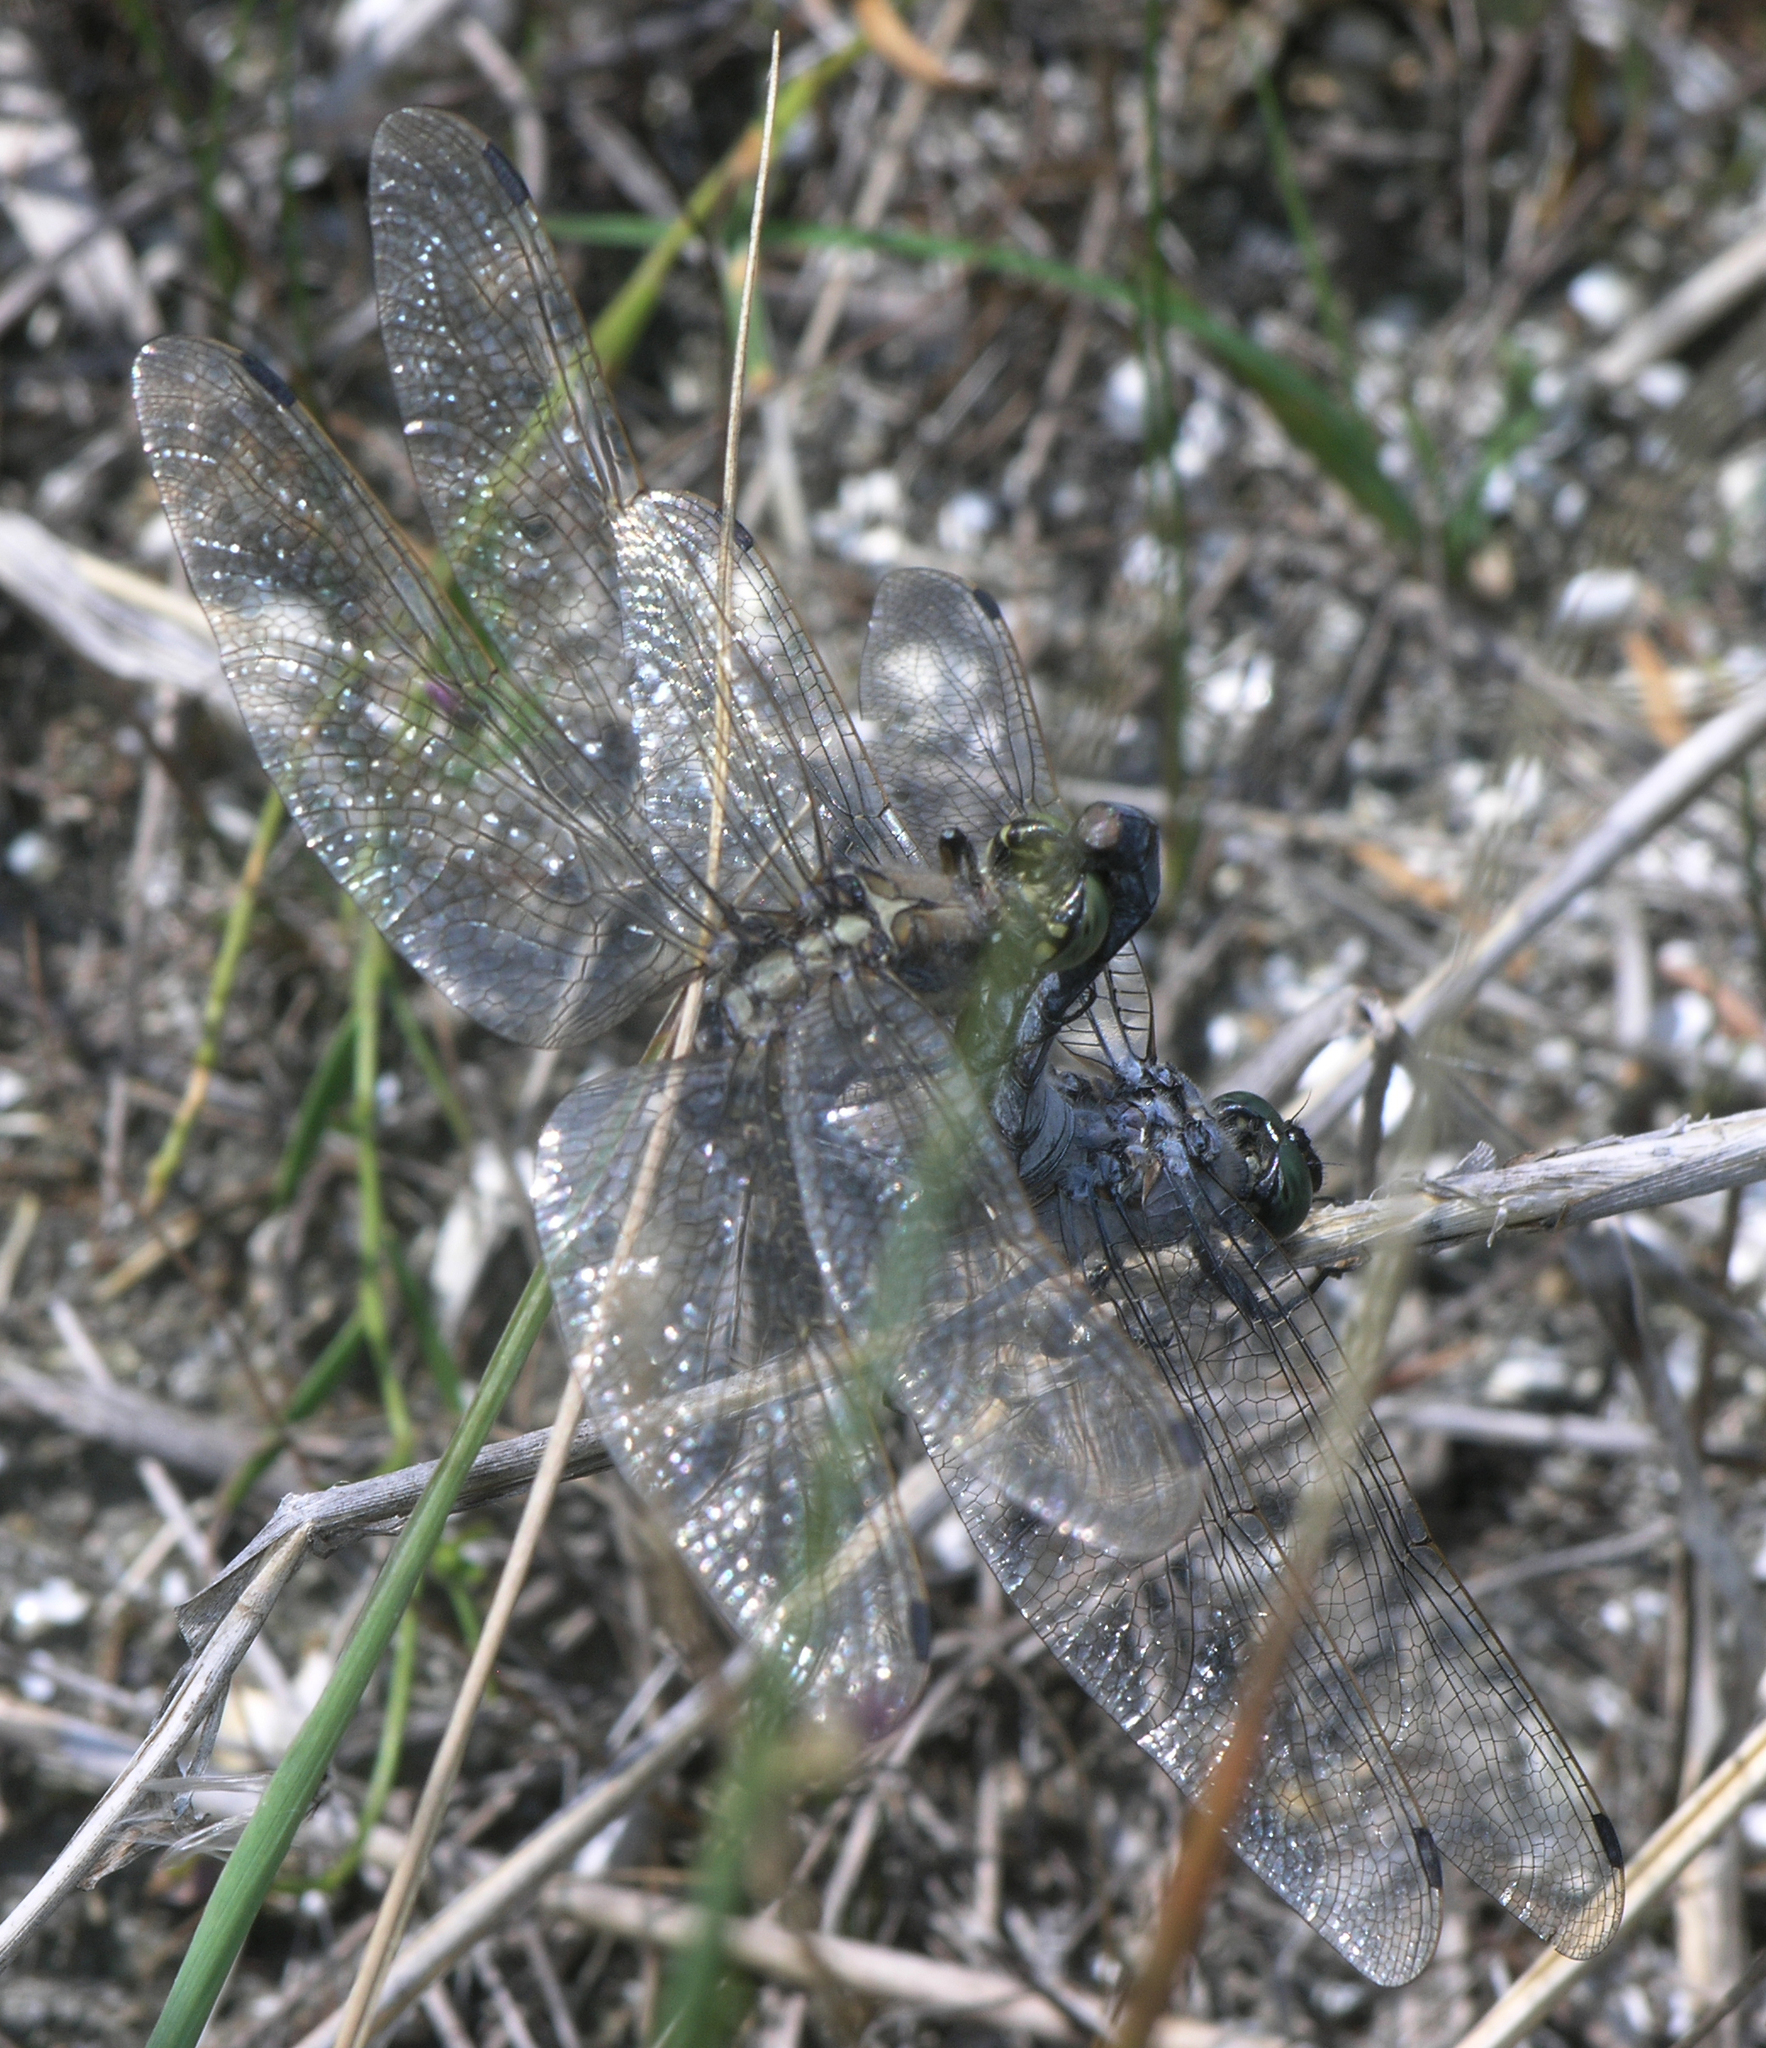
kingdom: Animalia
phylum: Arthropoda
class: Insecta
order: Odonata
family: Libellulidae
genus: Orthetrum
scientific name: Orthetrum cancellatum
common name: Black-tailed skimmer
